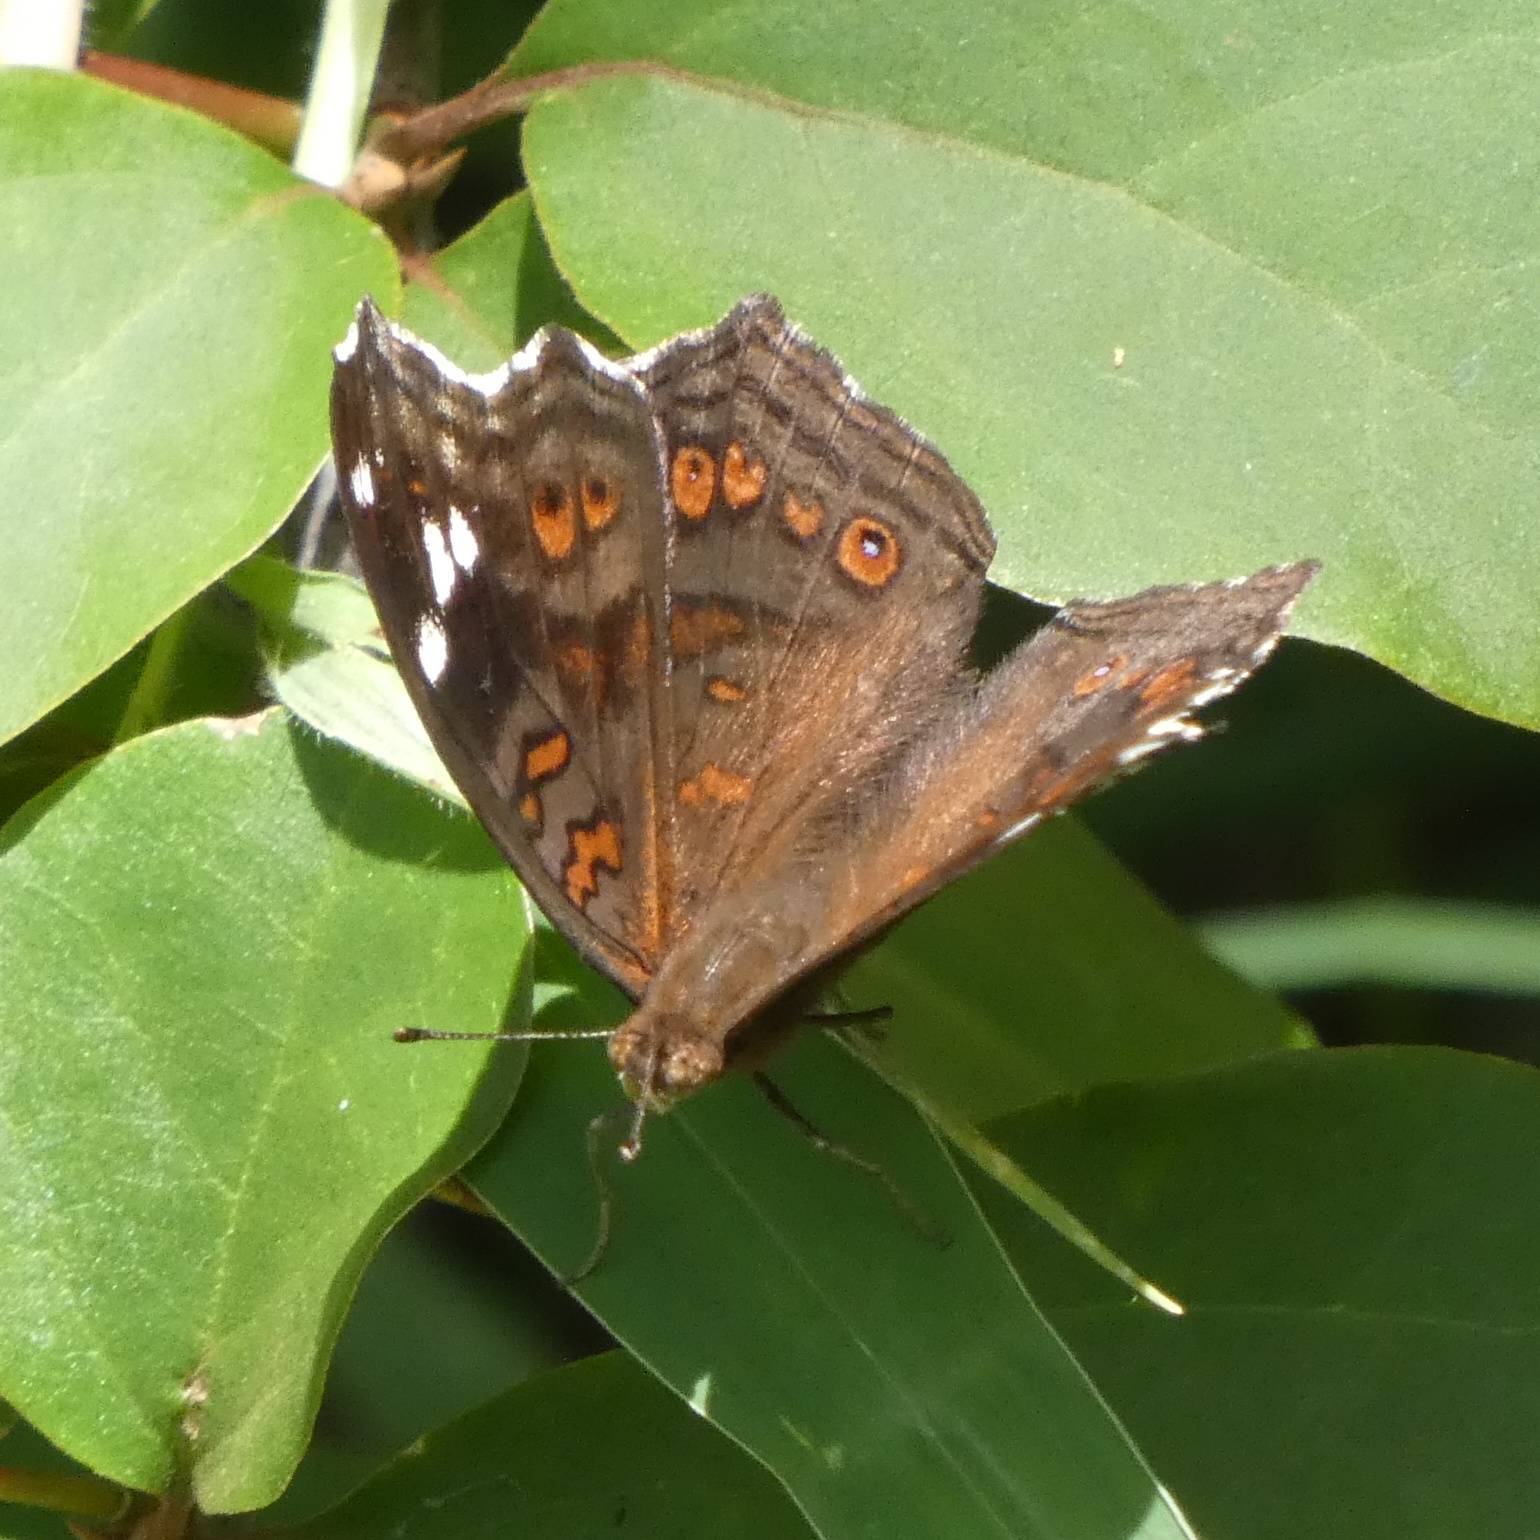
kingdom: Animalia
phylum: Arthropoda
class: Insecta
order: Lepidoptera
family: Nymphalidae
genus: Junonia
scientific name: Junonia natalica
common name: Brown pansy
